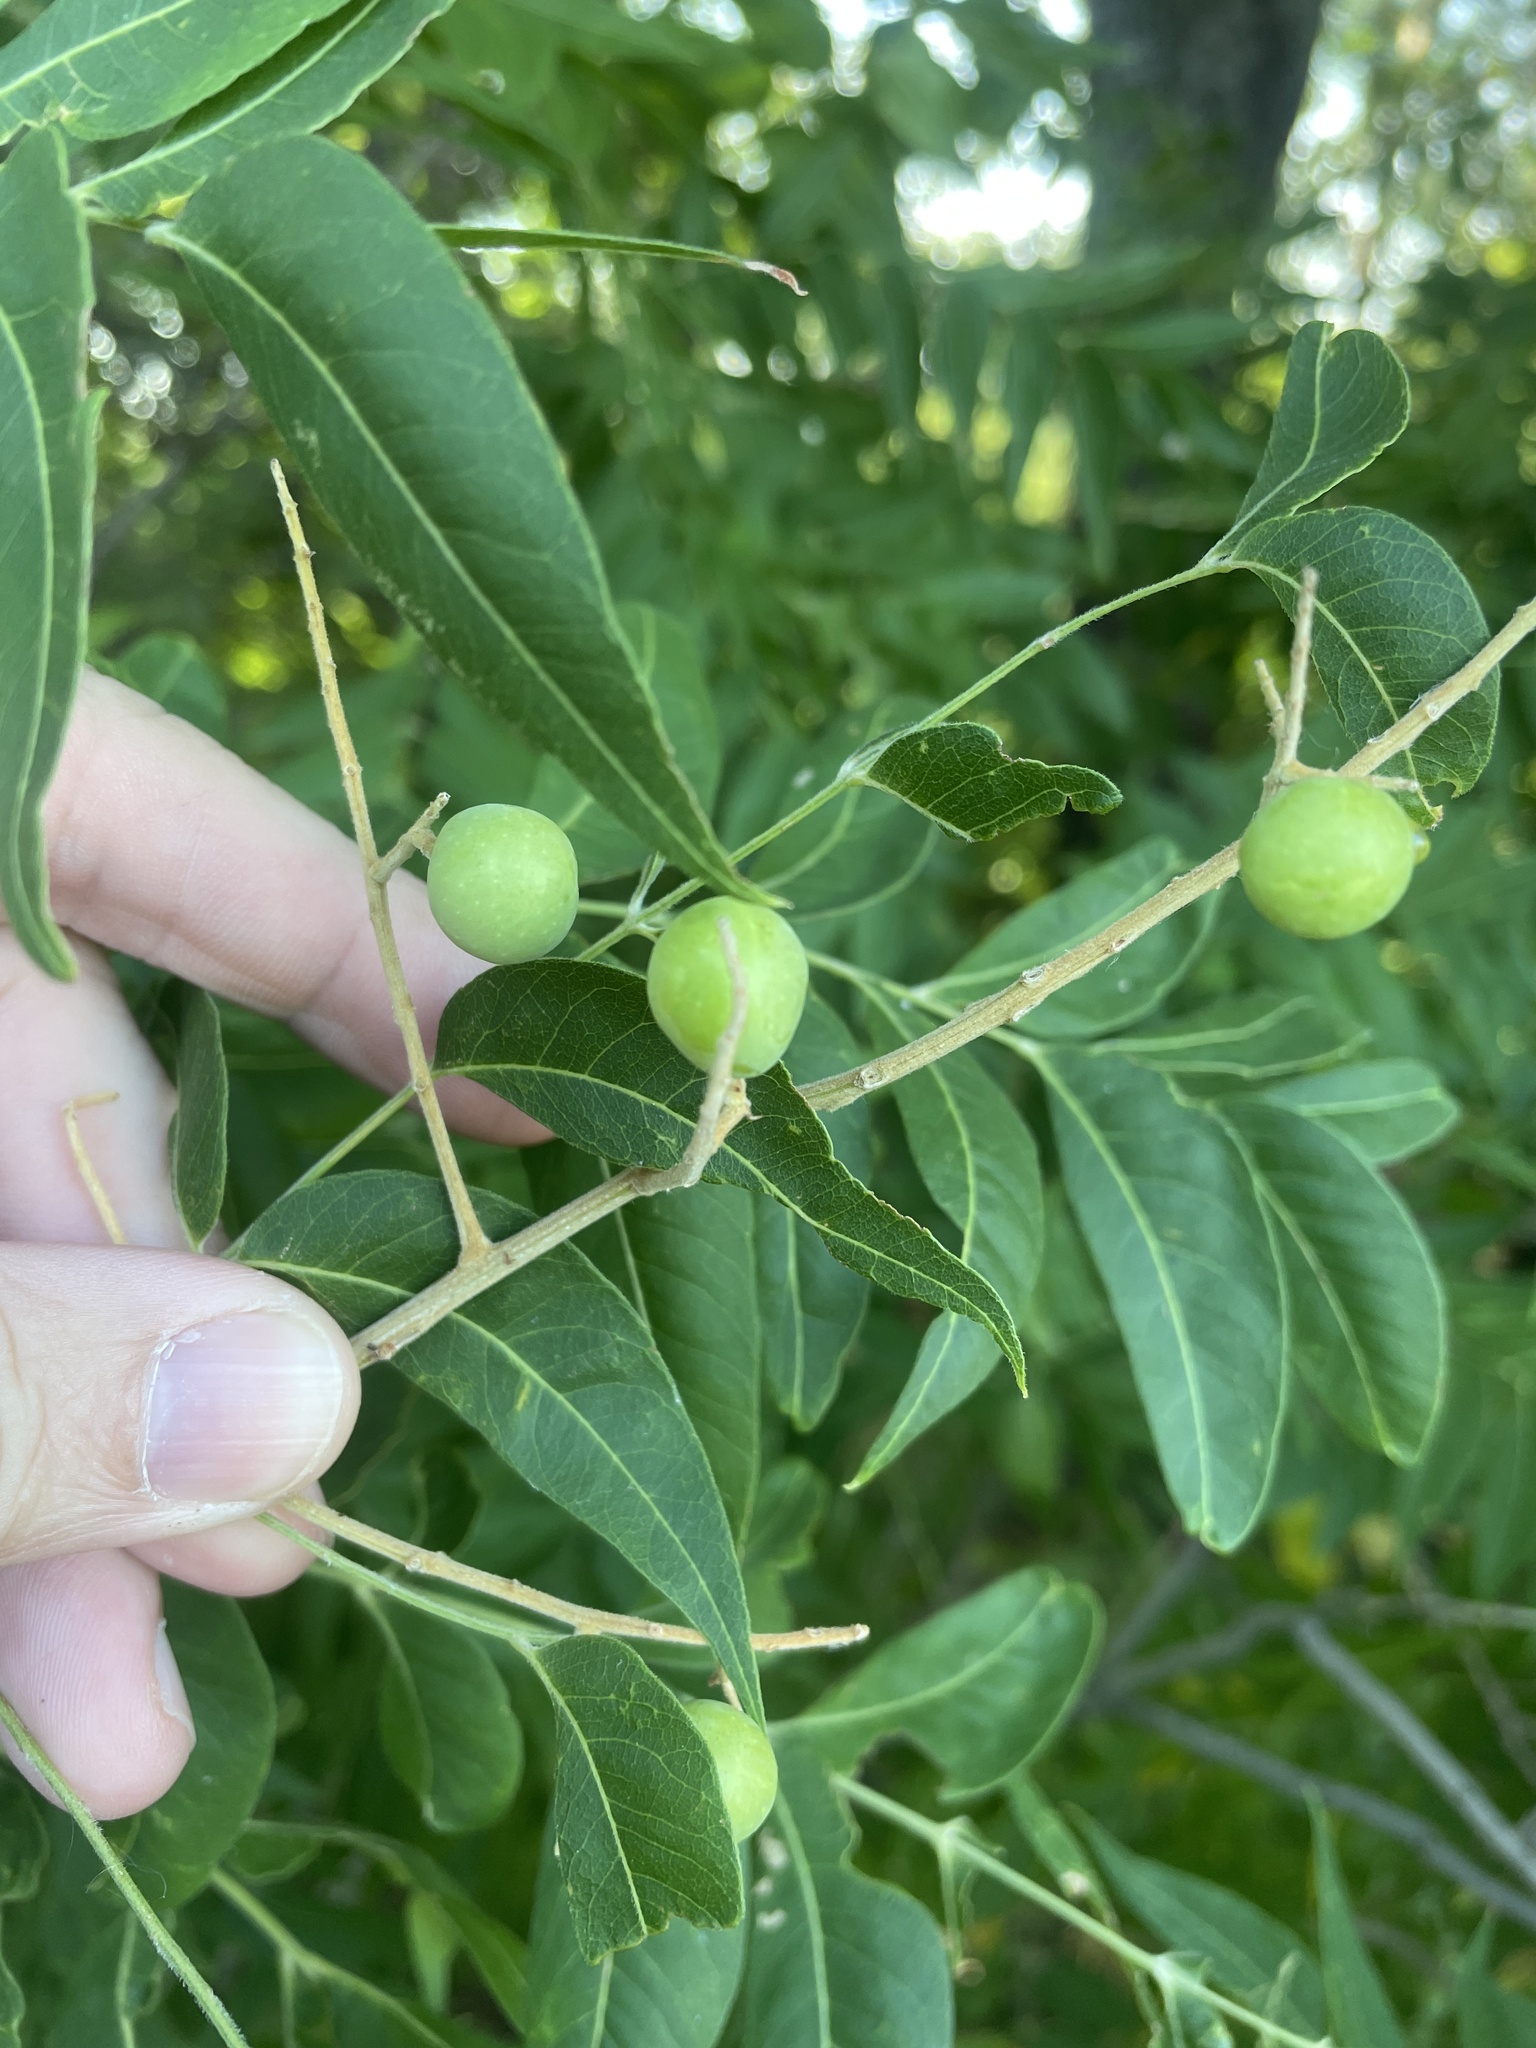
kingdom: Plantae
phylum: Tracheophyta
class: Magnoliopsida
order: Sapindales
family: Sapindaceae
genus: Sapindus
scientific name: Sapindus drummondii
